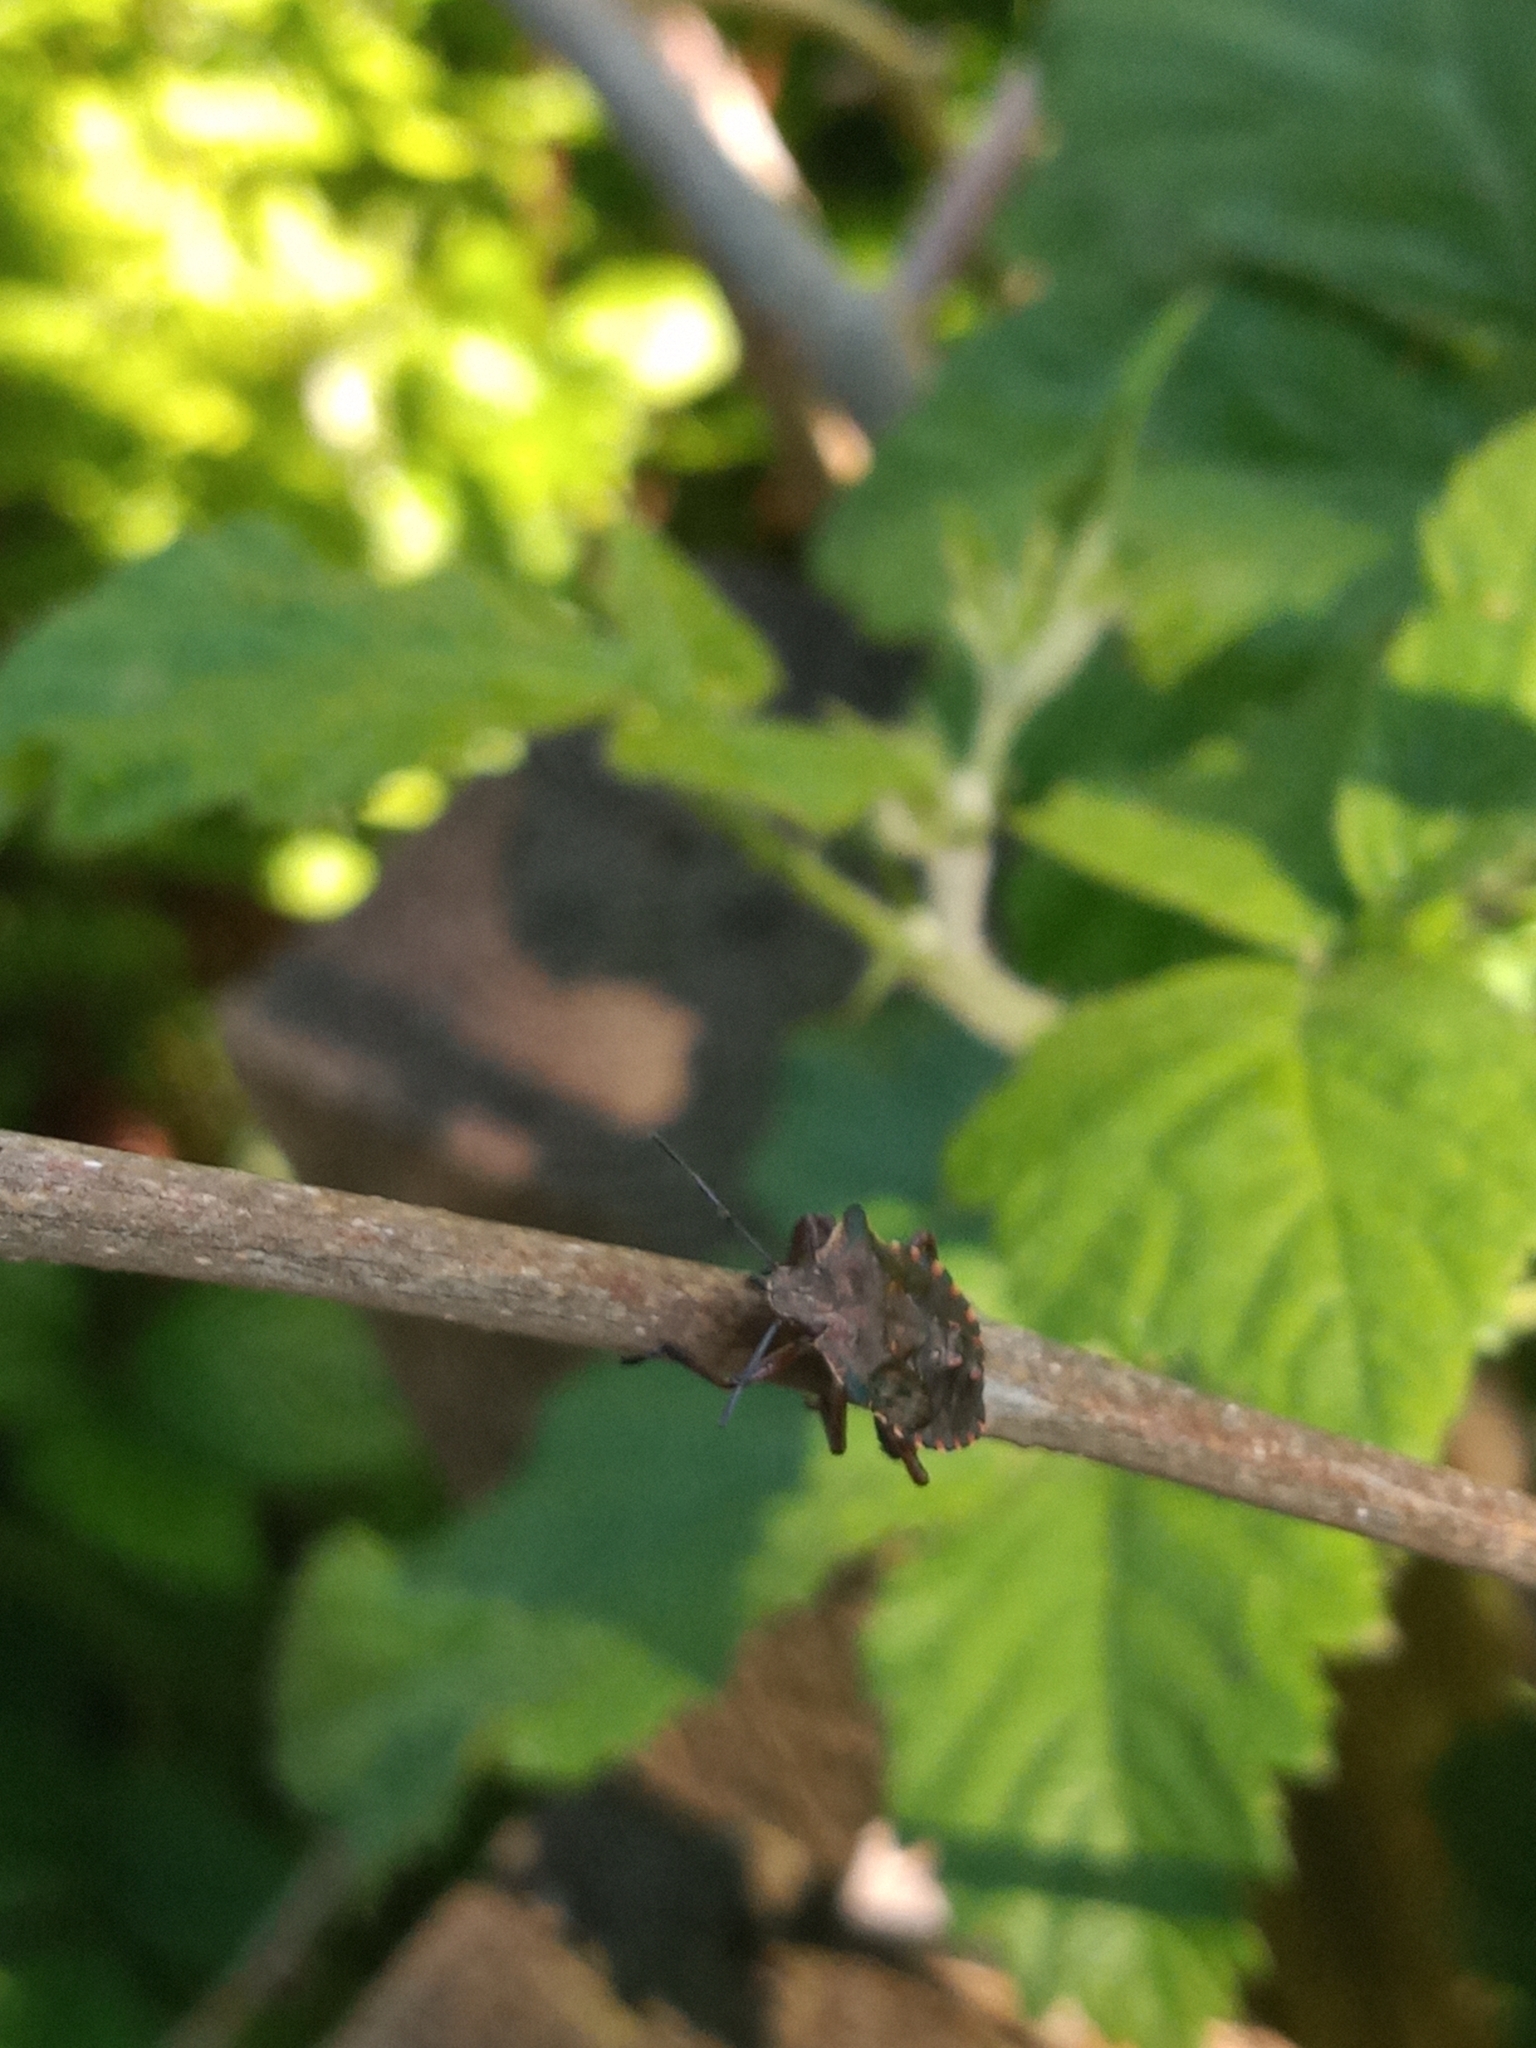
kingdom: Animalia
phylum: Arthropoda
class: Insecta
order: Hemiptera
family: Pentatomidae
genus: Pentatoma
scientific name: Pentatoma rufipes
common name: Forest bug
